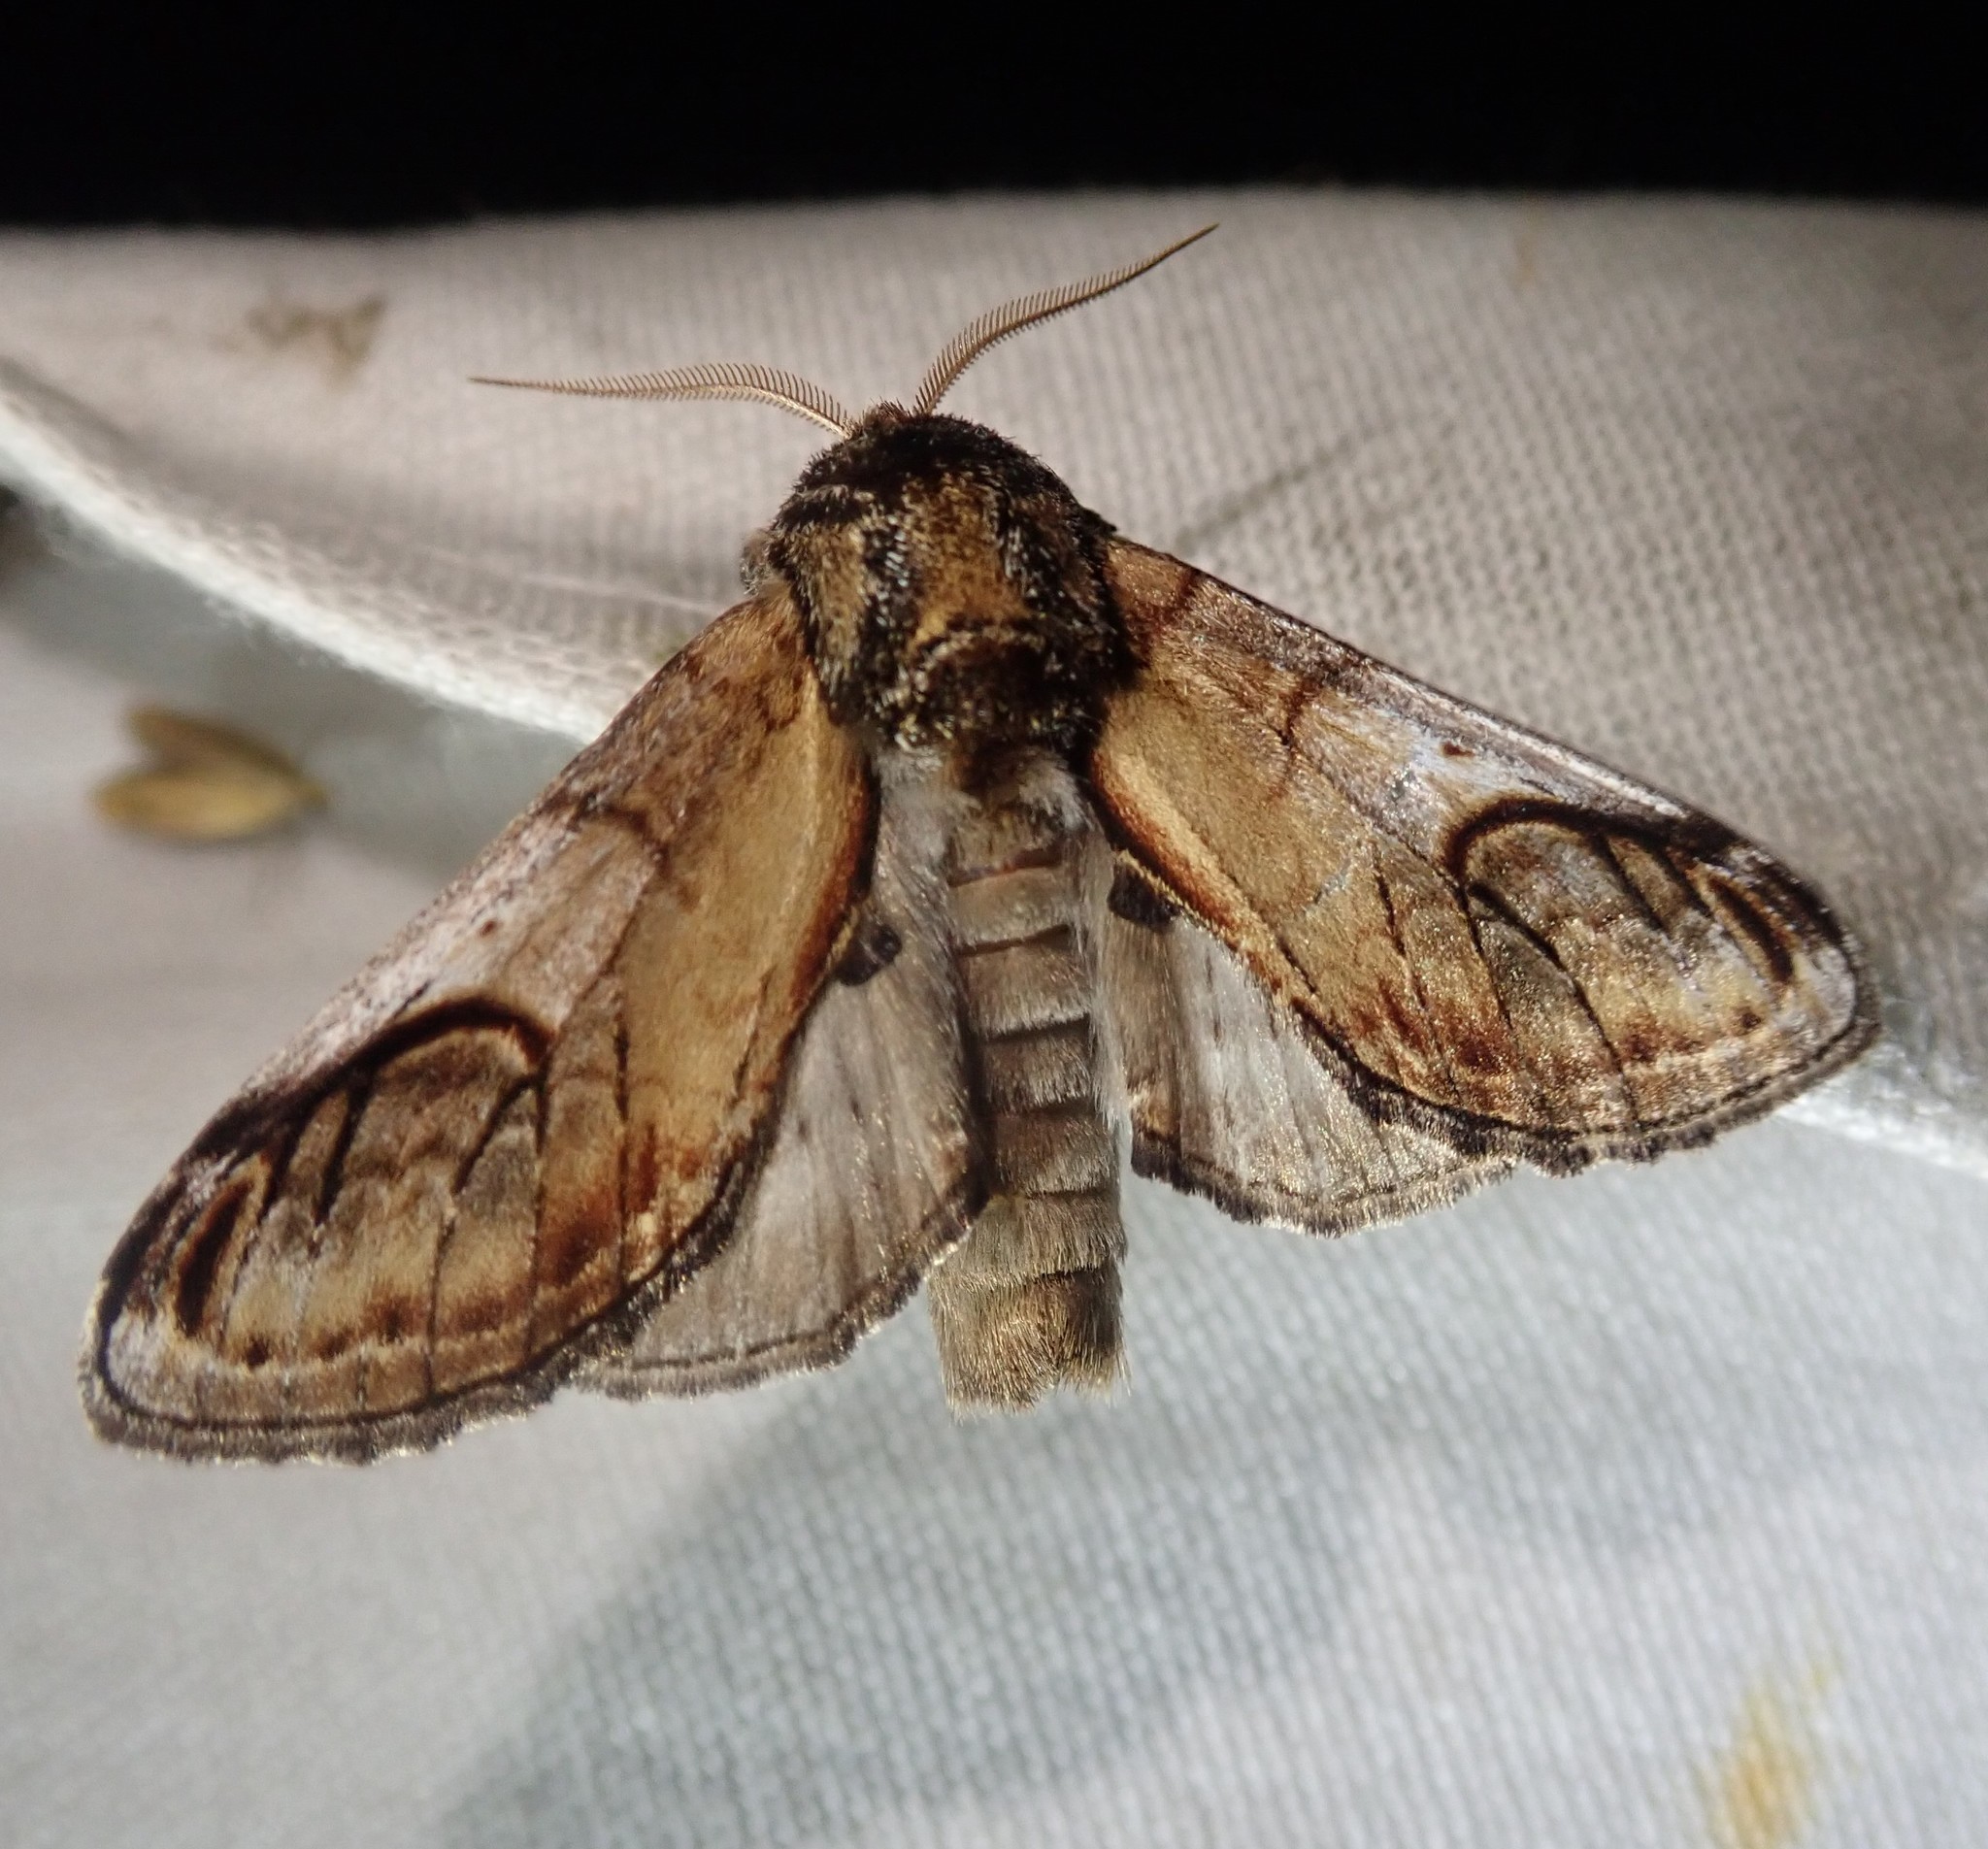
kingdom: Animalia
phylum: Arthropoda
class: Insecta
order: Lepidoptera
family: Notodontidae
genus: Notodonta
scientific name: Notodonta ziczac
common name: Pebble prominent
